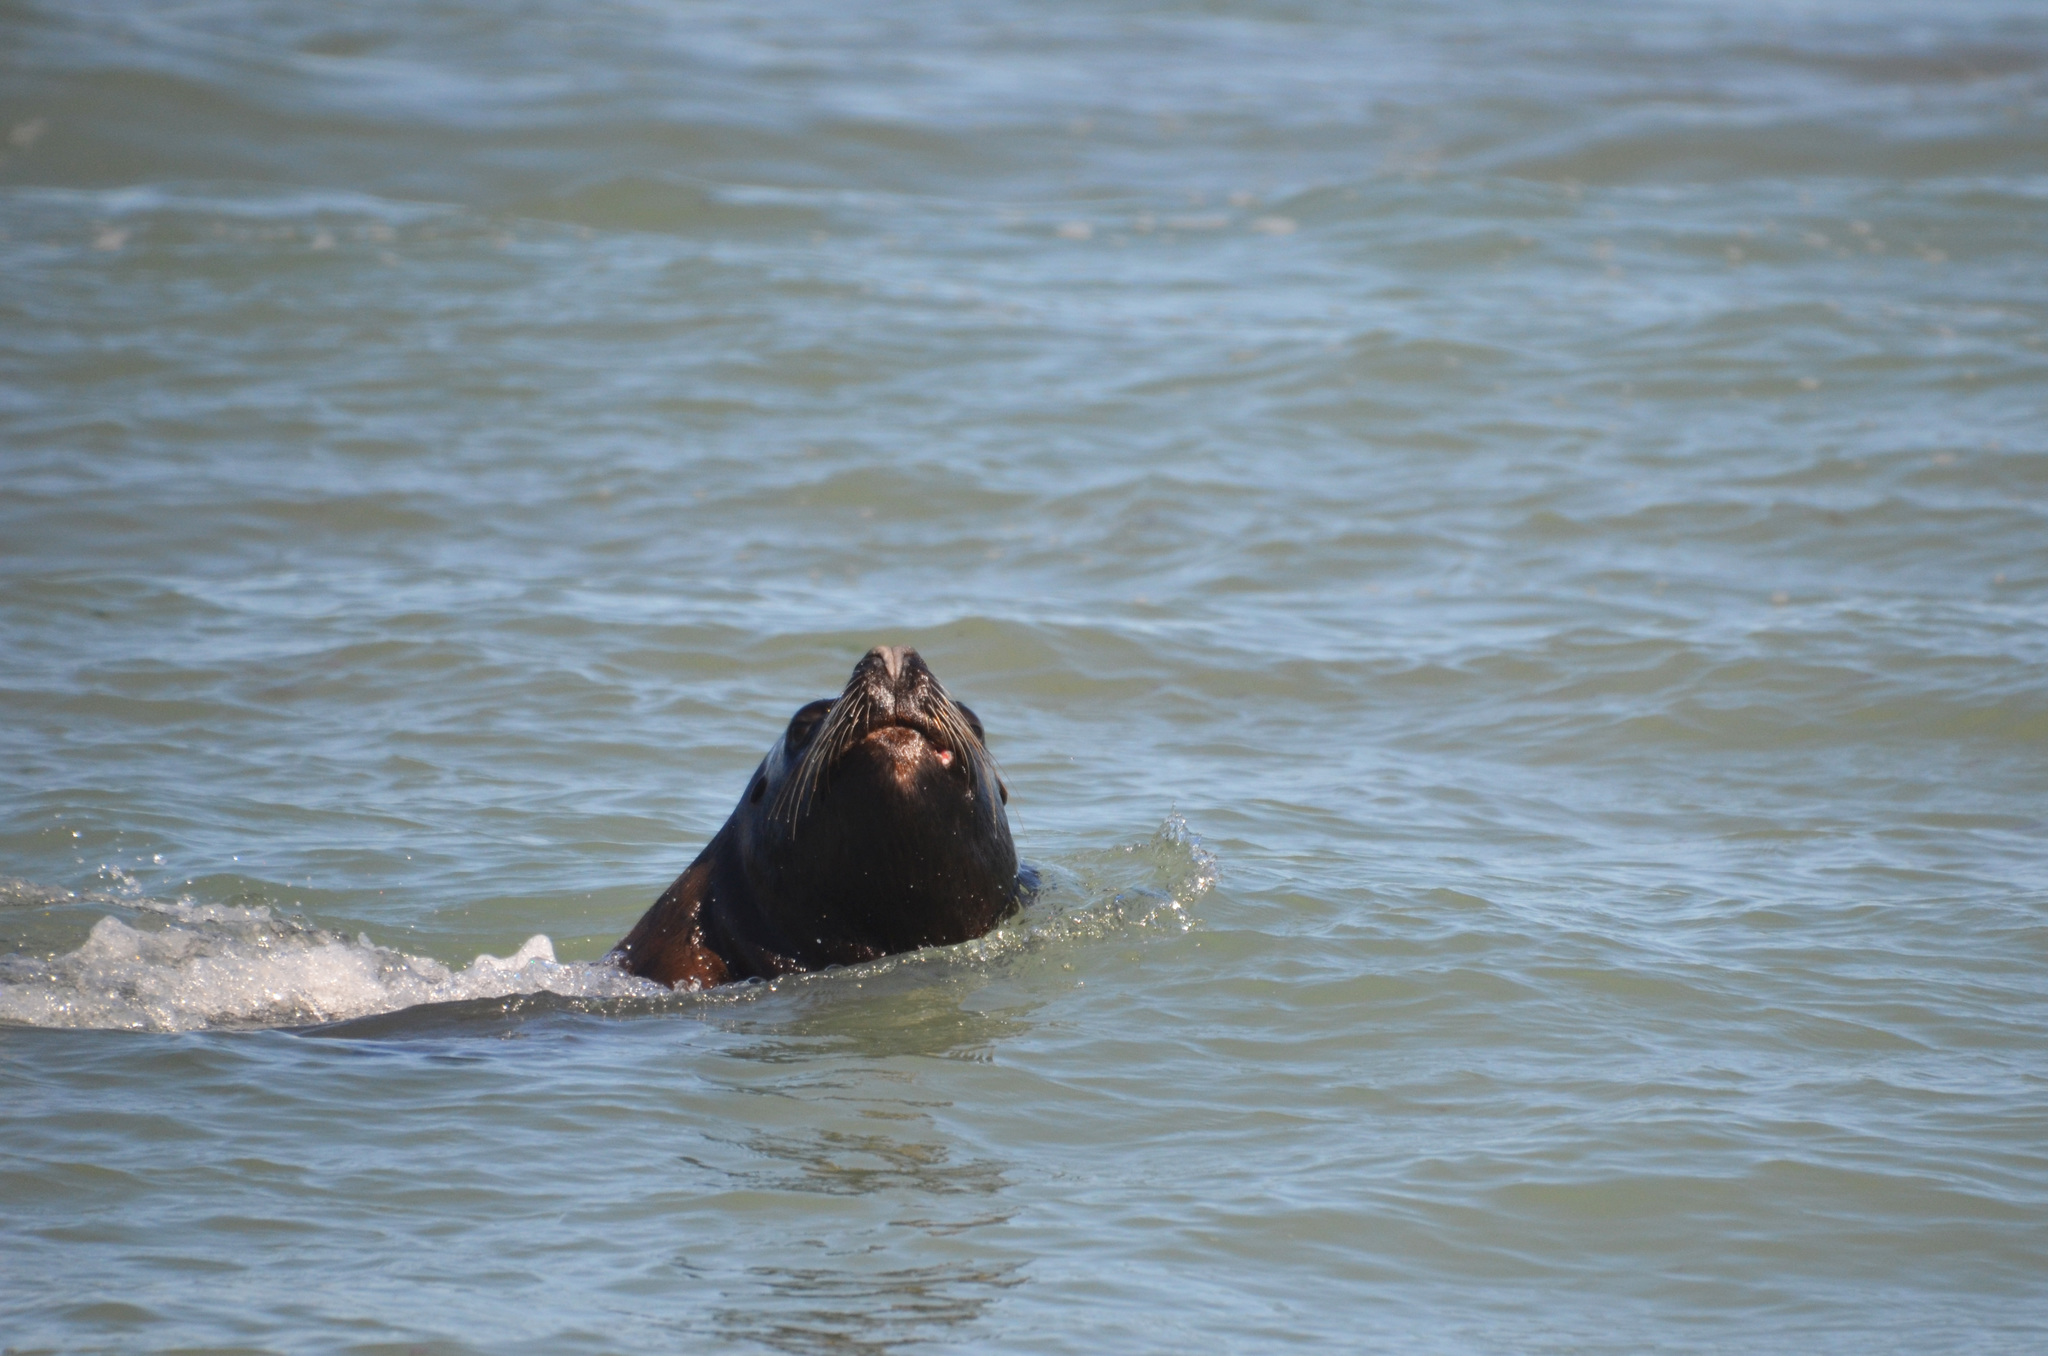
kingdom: Animalia
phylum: Chordata
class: Mammalia
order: Carnivora
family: Otariidae
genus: Otaria
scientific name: Otaria byronia
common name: South american sea lion
